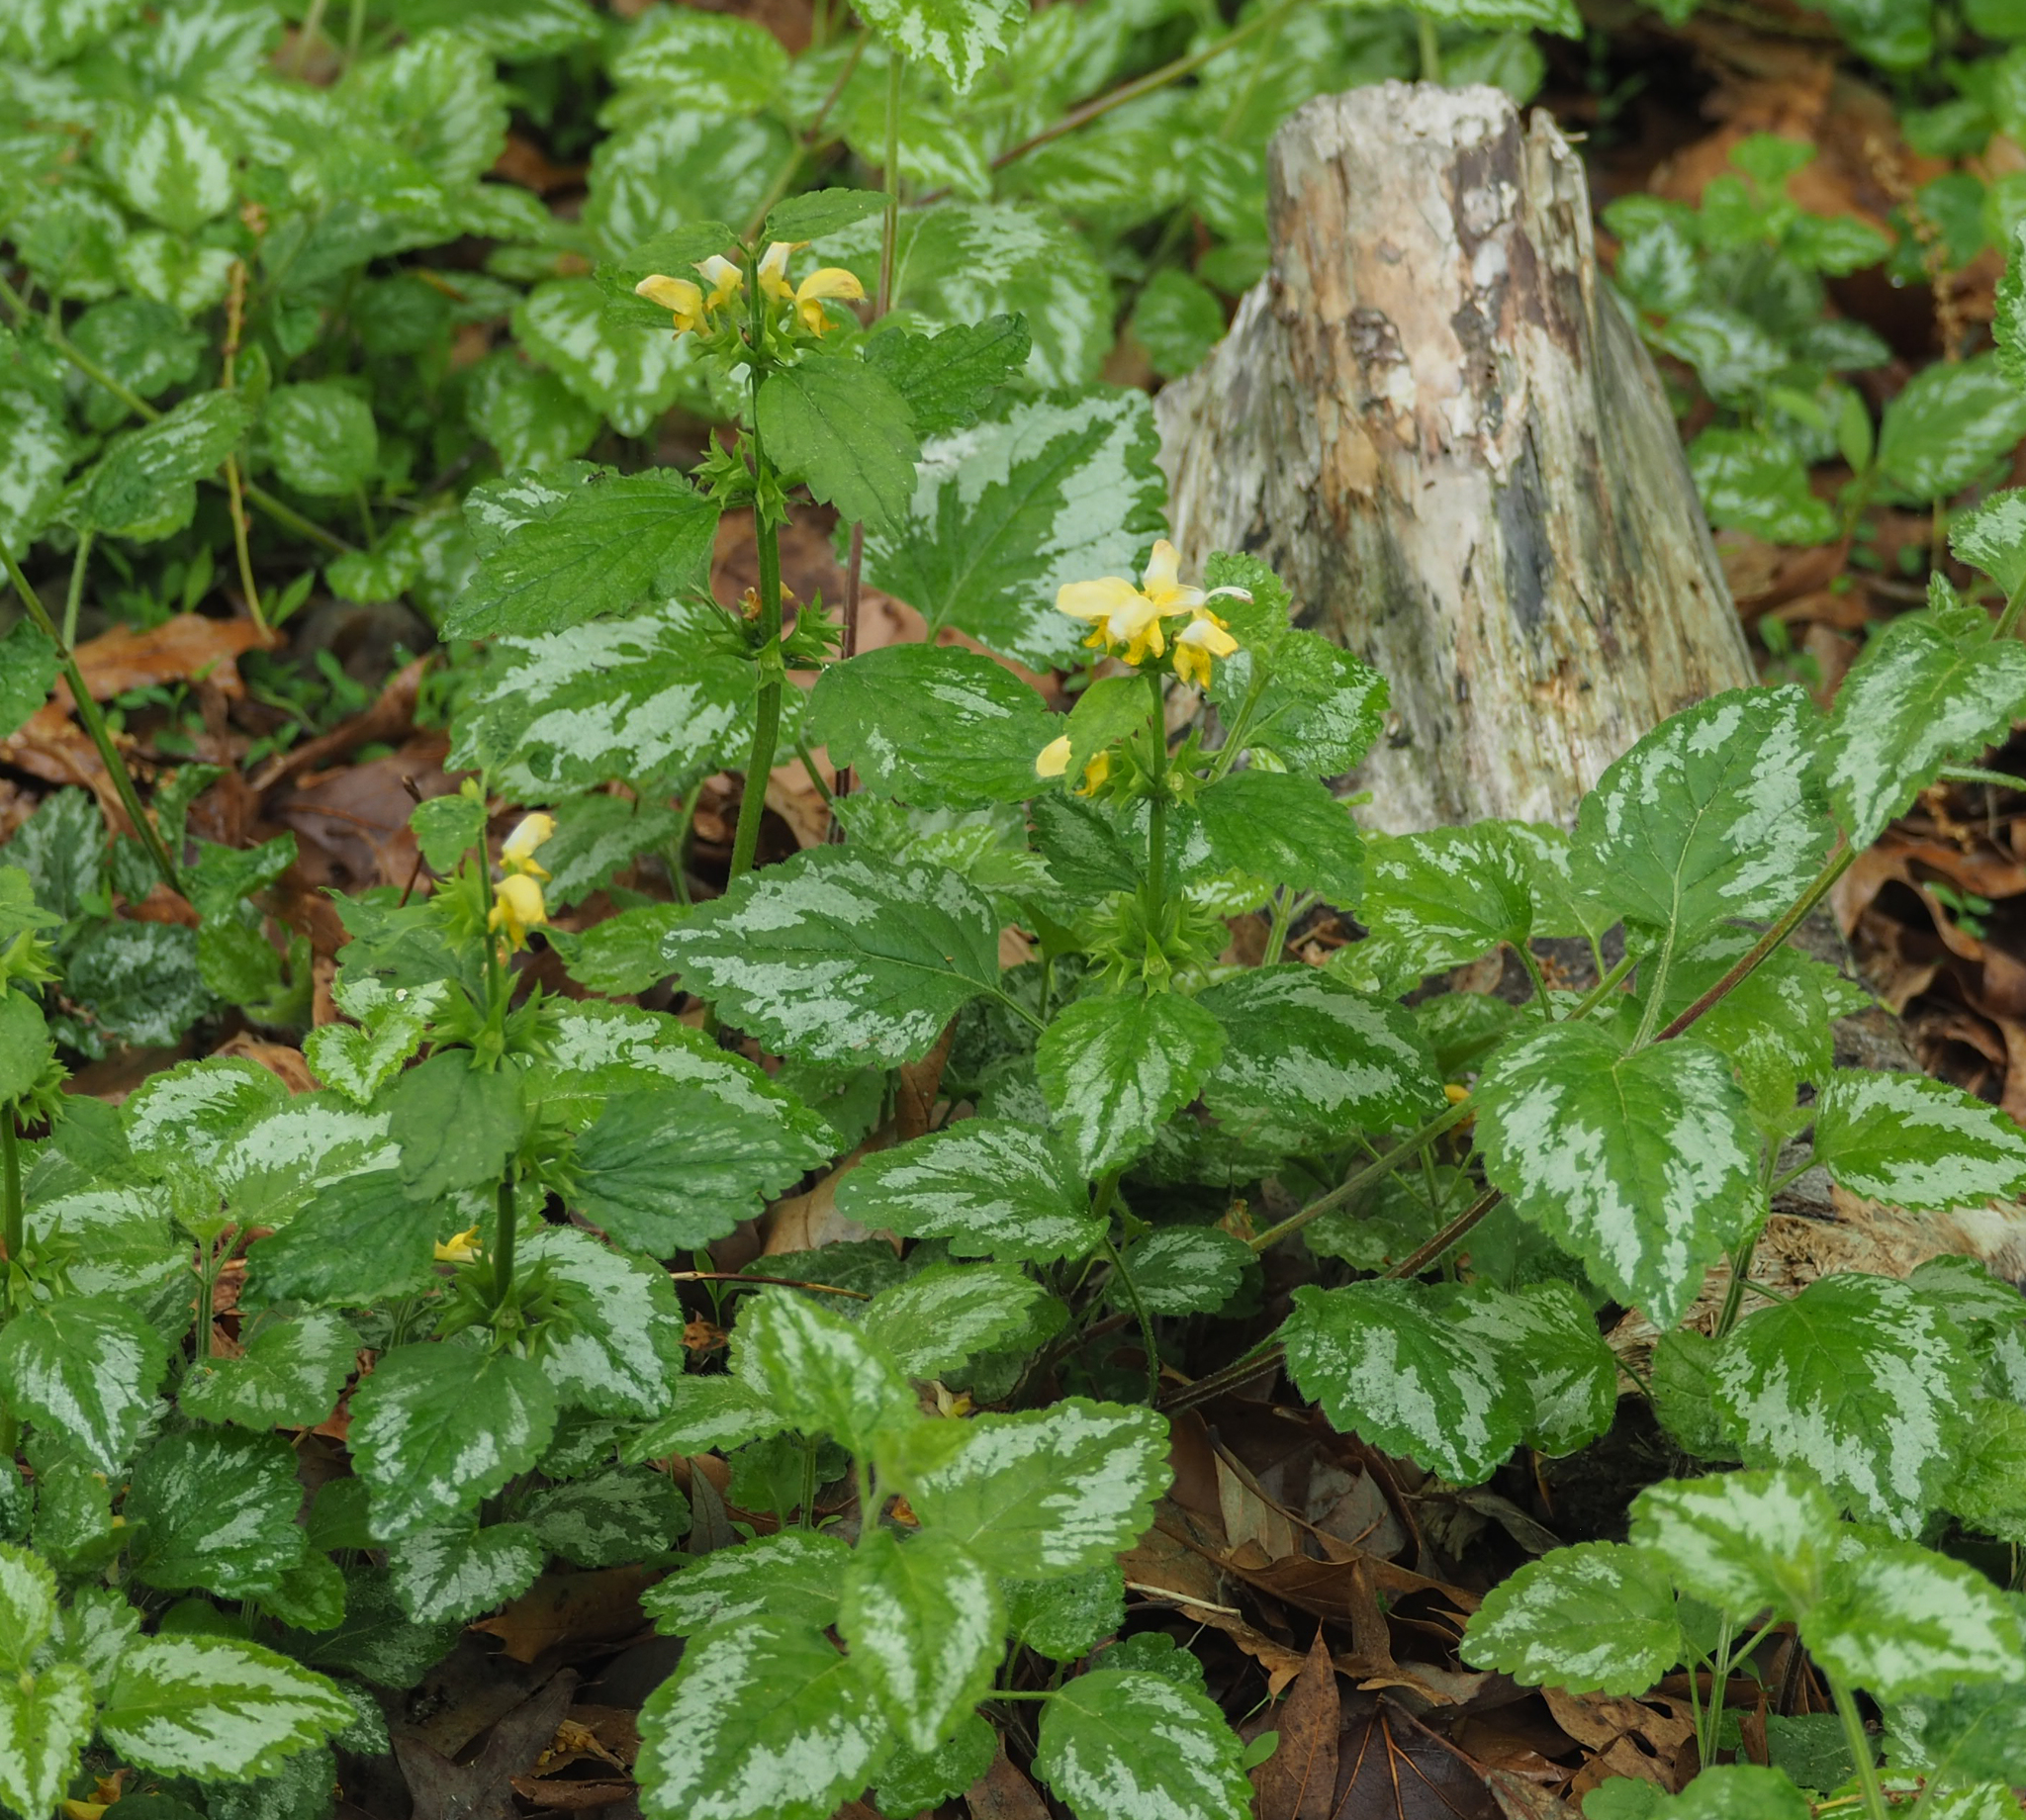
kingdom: Plantae
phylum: Tracheophyta
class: Magnoliopsida
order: Lamiales
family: Lamiaceae
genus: Lamium
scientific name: Lamium galeobdolon
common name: Yellow archangel
